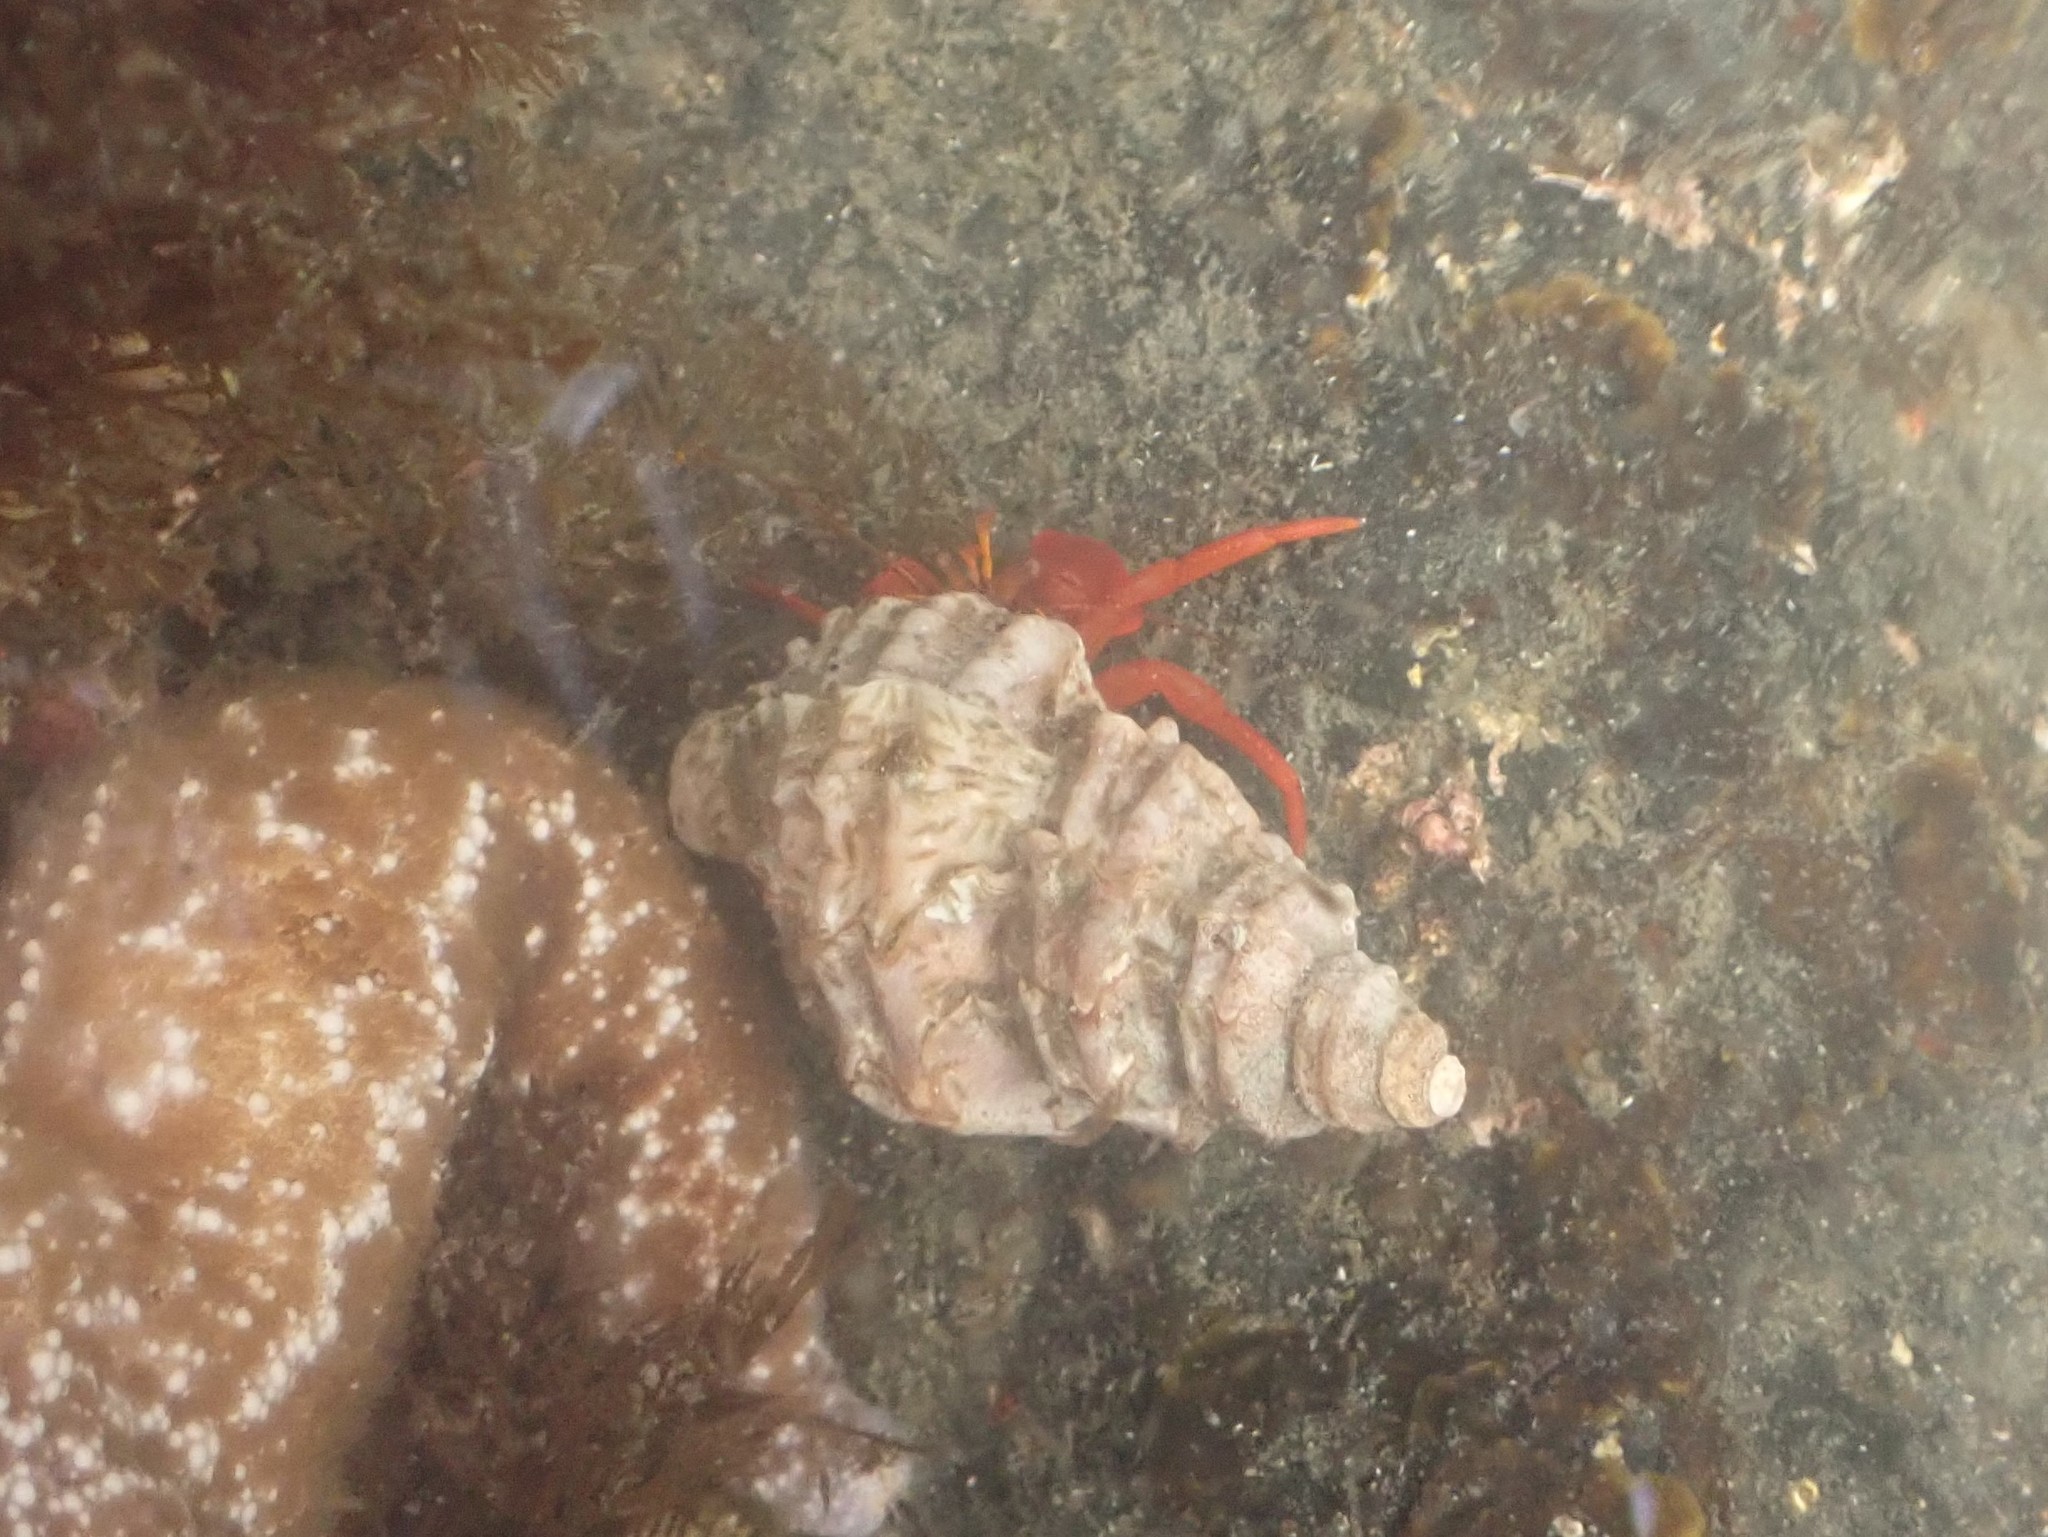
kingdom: Animalia
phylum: Arthropoda
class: Malacostraca
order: Decapoda
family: Paguridae
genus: Elassochirus
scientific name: Elassochirus gilli
